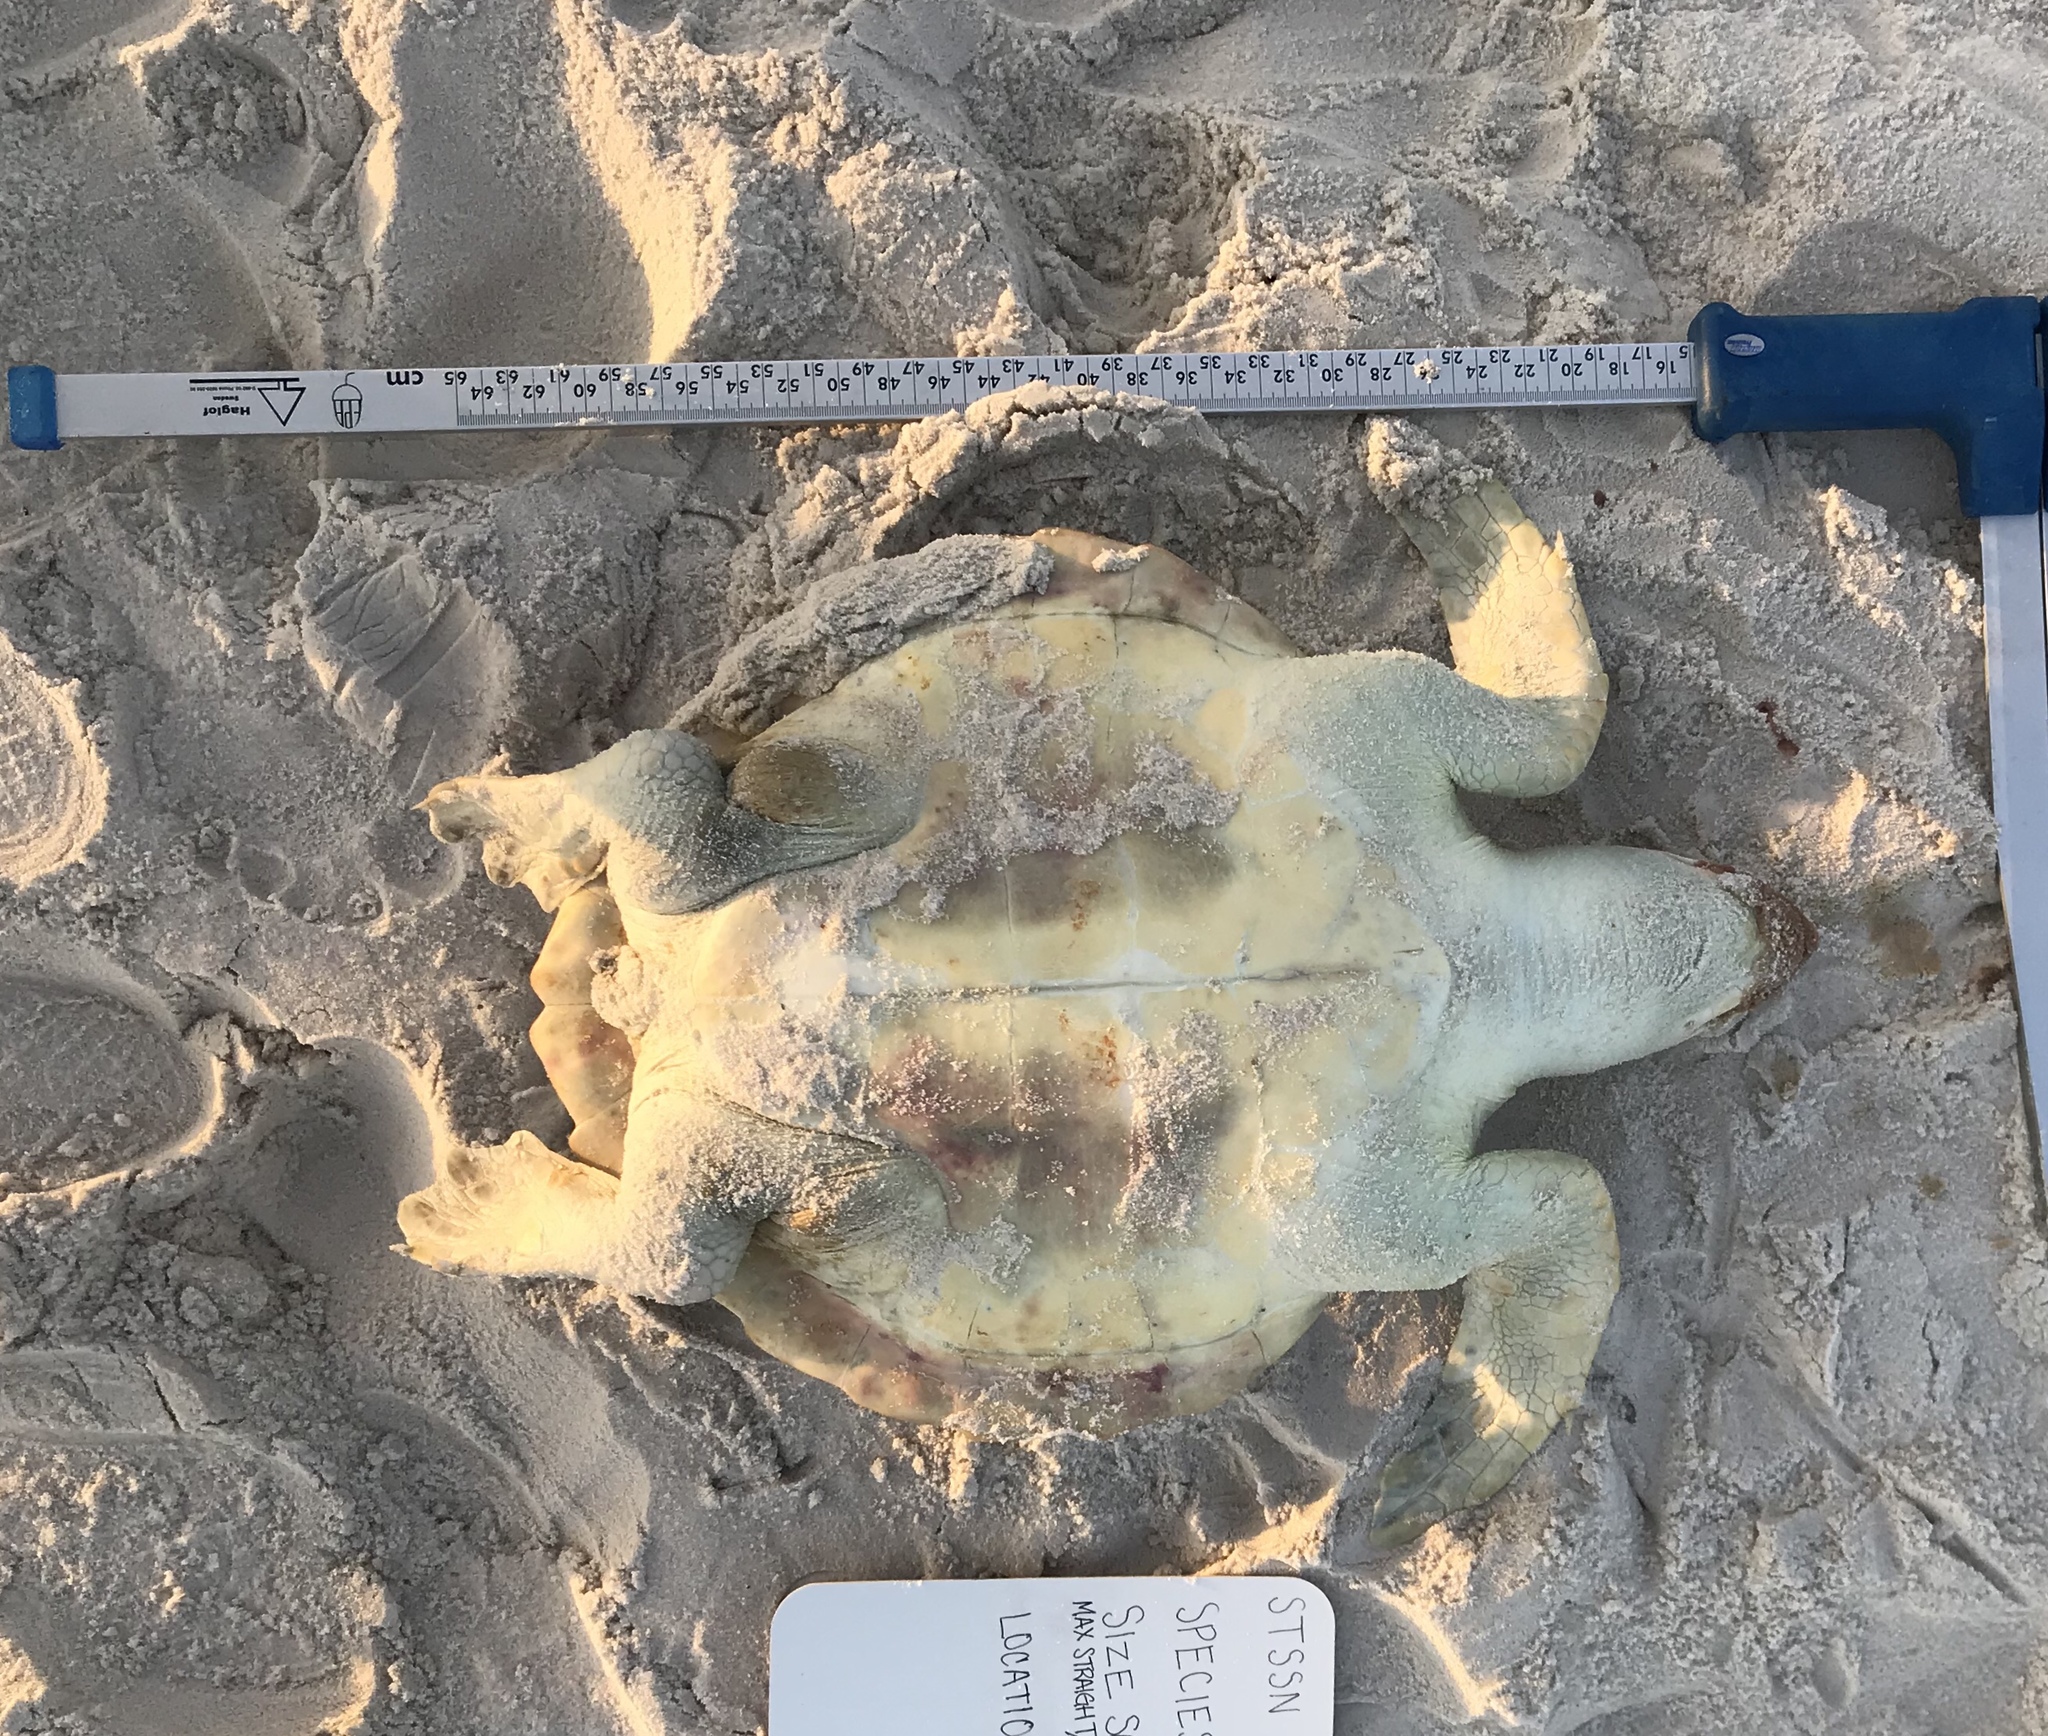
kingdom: Animalia
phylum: Chordata
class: Testudines
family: Cheloniidae
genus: Lepidochelys
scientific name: Lepidochelys kempii
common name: Kemp's ridley turtle
